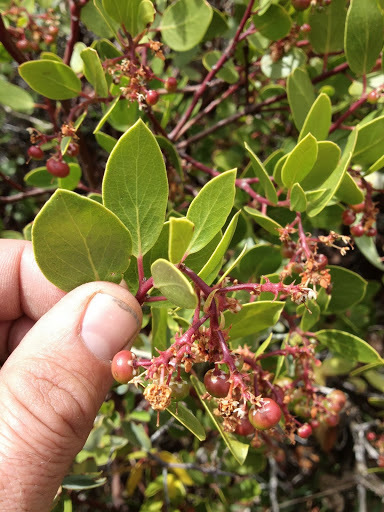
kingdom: Plantae
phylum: Tracheophyta
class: Magnoliopsida
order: Ericales
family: Ericaceae
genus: Arctostaphylos
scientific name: Arctostaphylos patula
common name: Green-leaf manzanita
